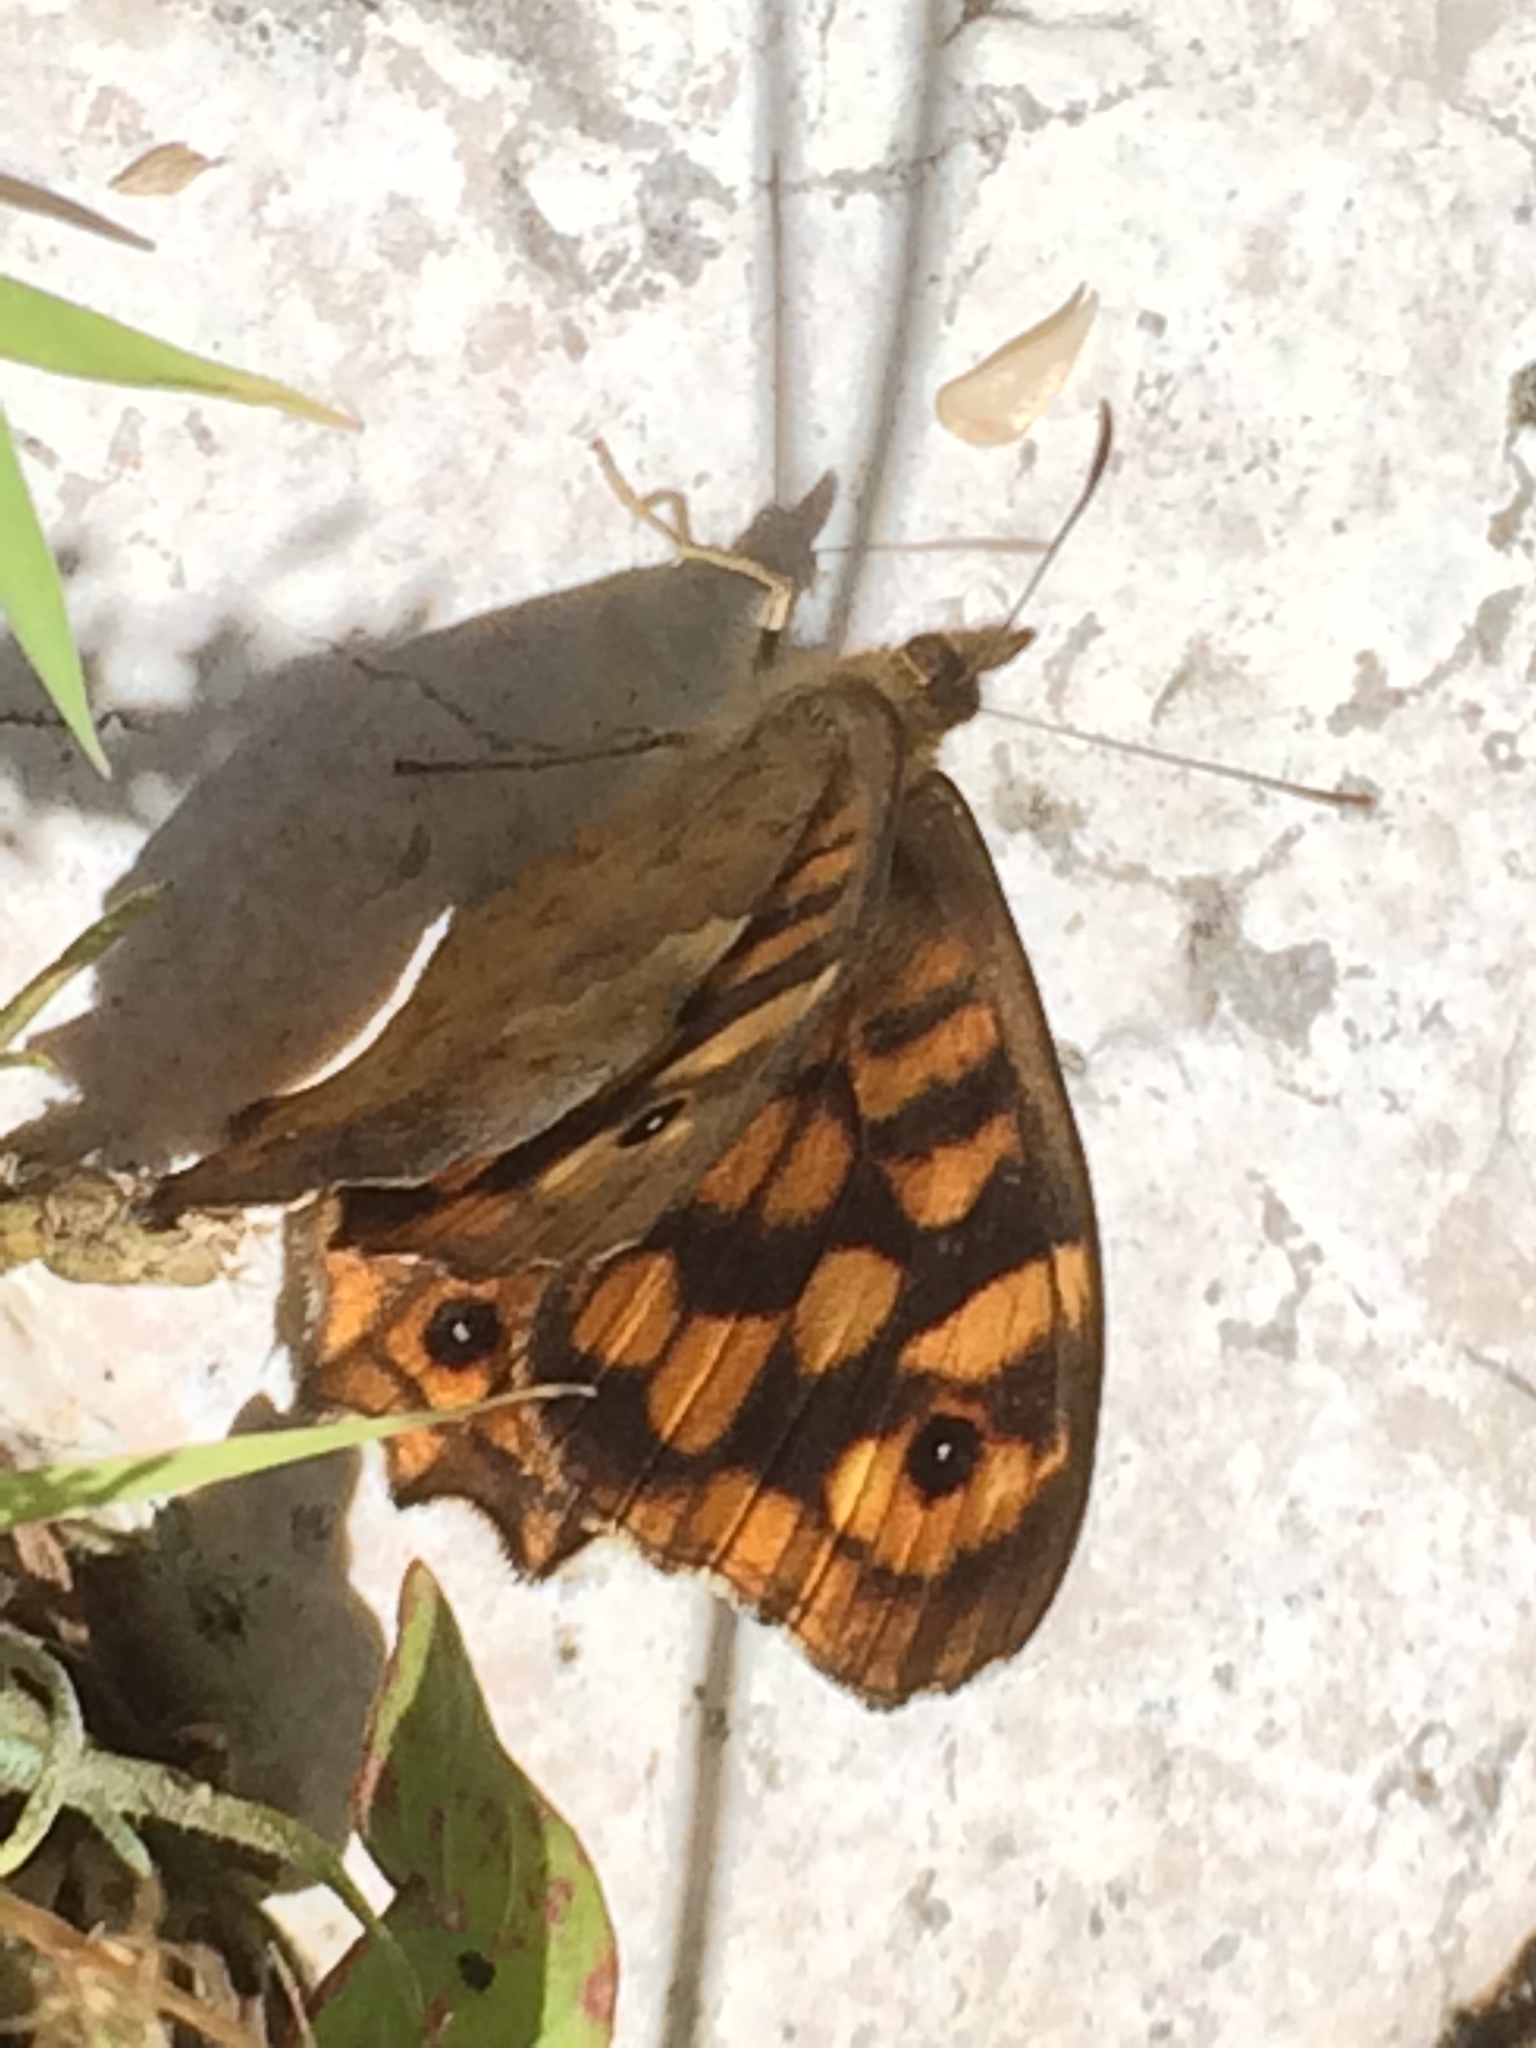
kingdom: Animalia
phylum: Arthropoda
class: Insecta
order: Lepidoptera
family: Nymphalidae
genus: Pararge
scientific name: Pararge aegeria
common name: Speckled wood
